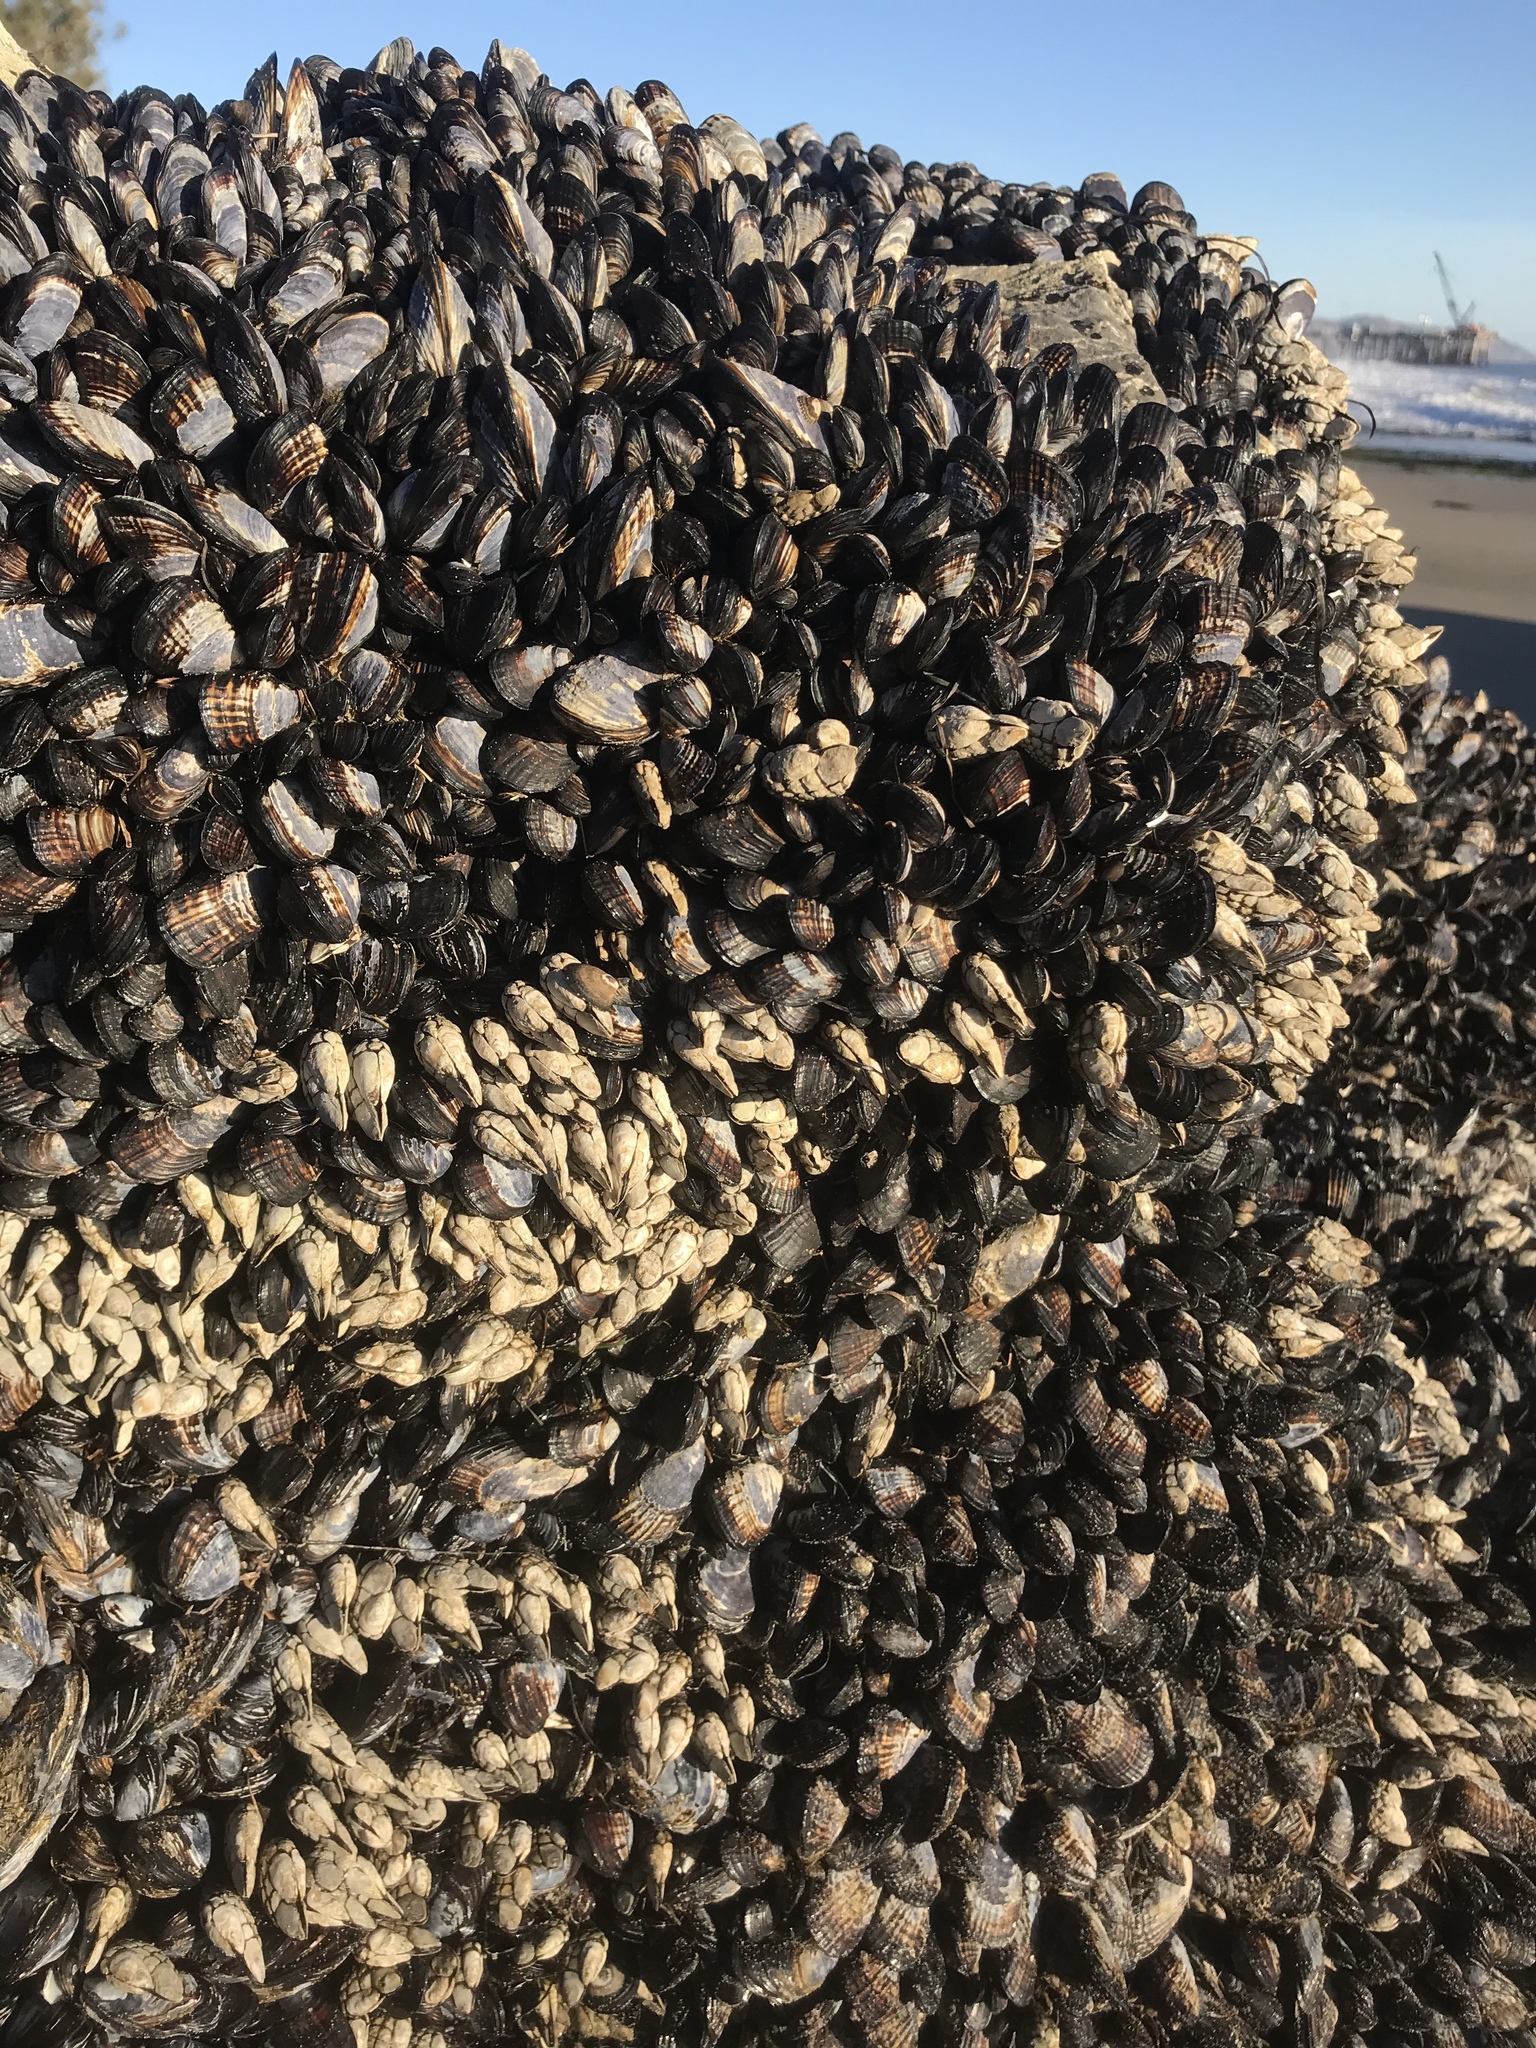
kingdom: Animalia
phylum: Mollusca
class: Bivalvia
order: Mytilida
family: Mytilidae
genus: Mytilus
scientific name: Mytilus californianus
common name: California mussel
